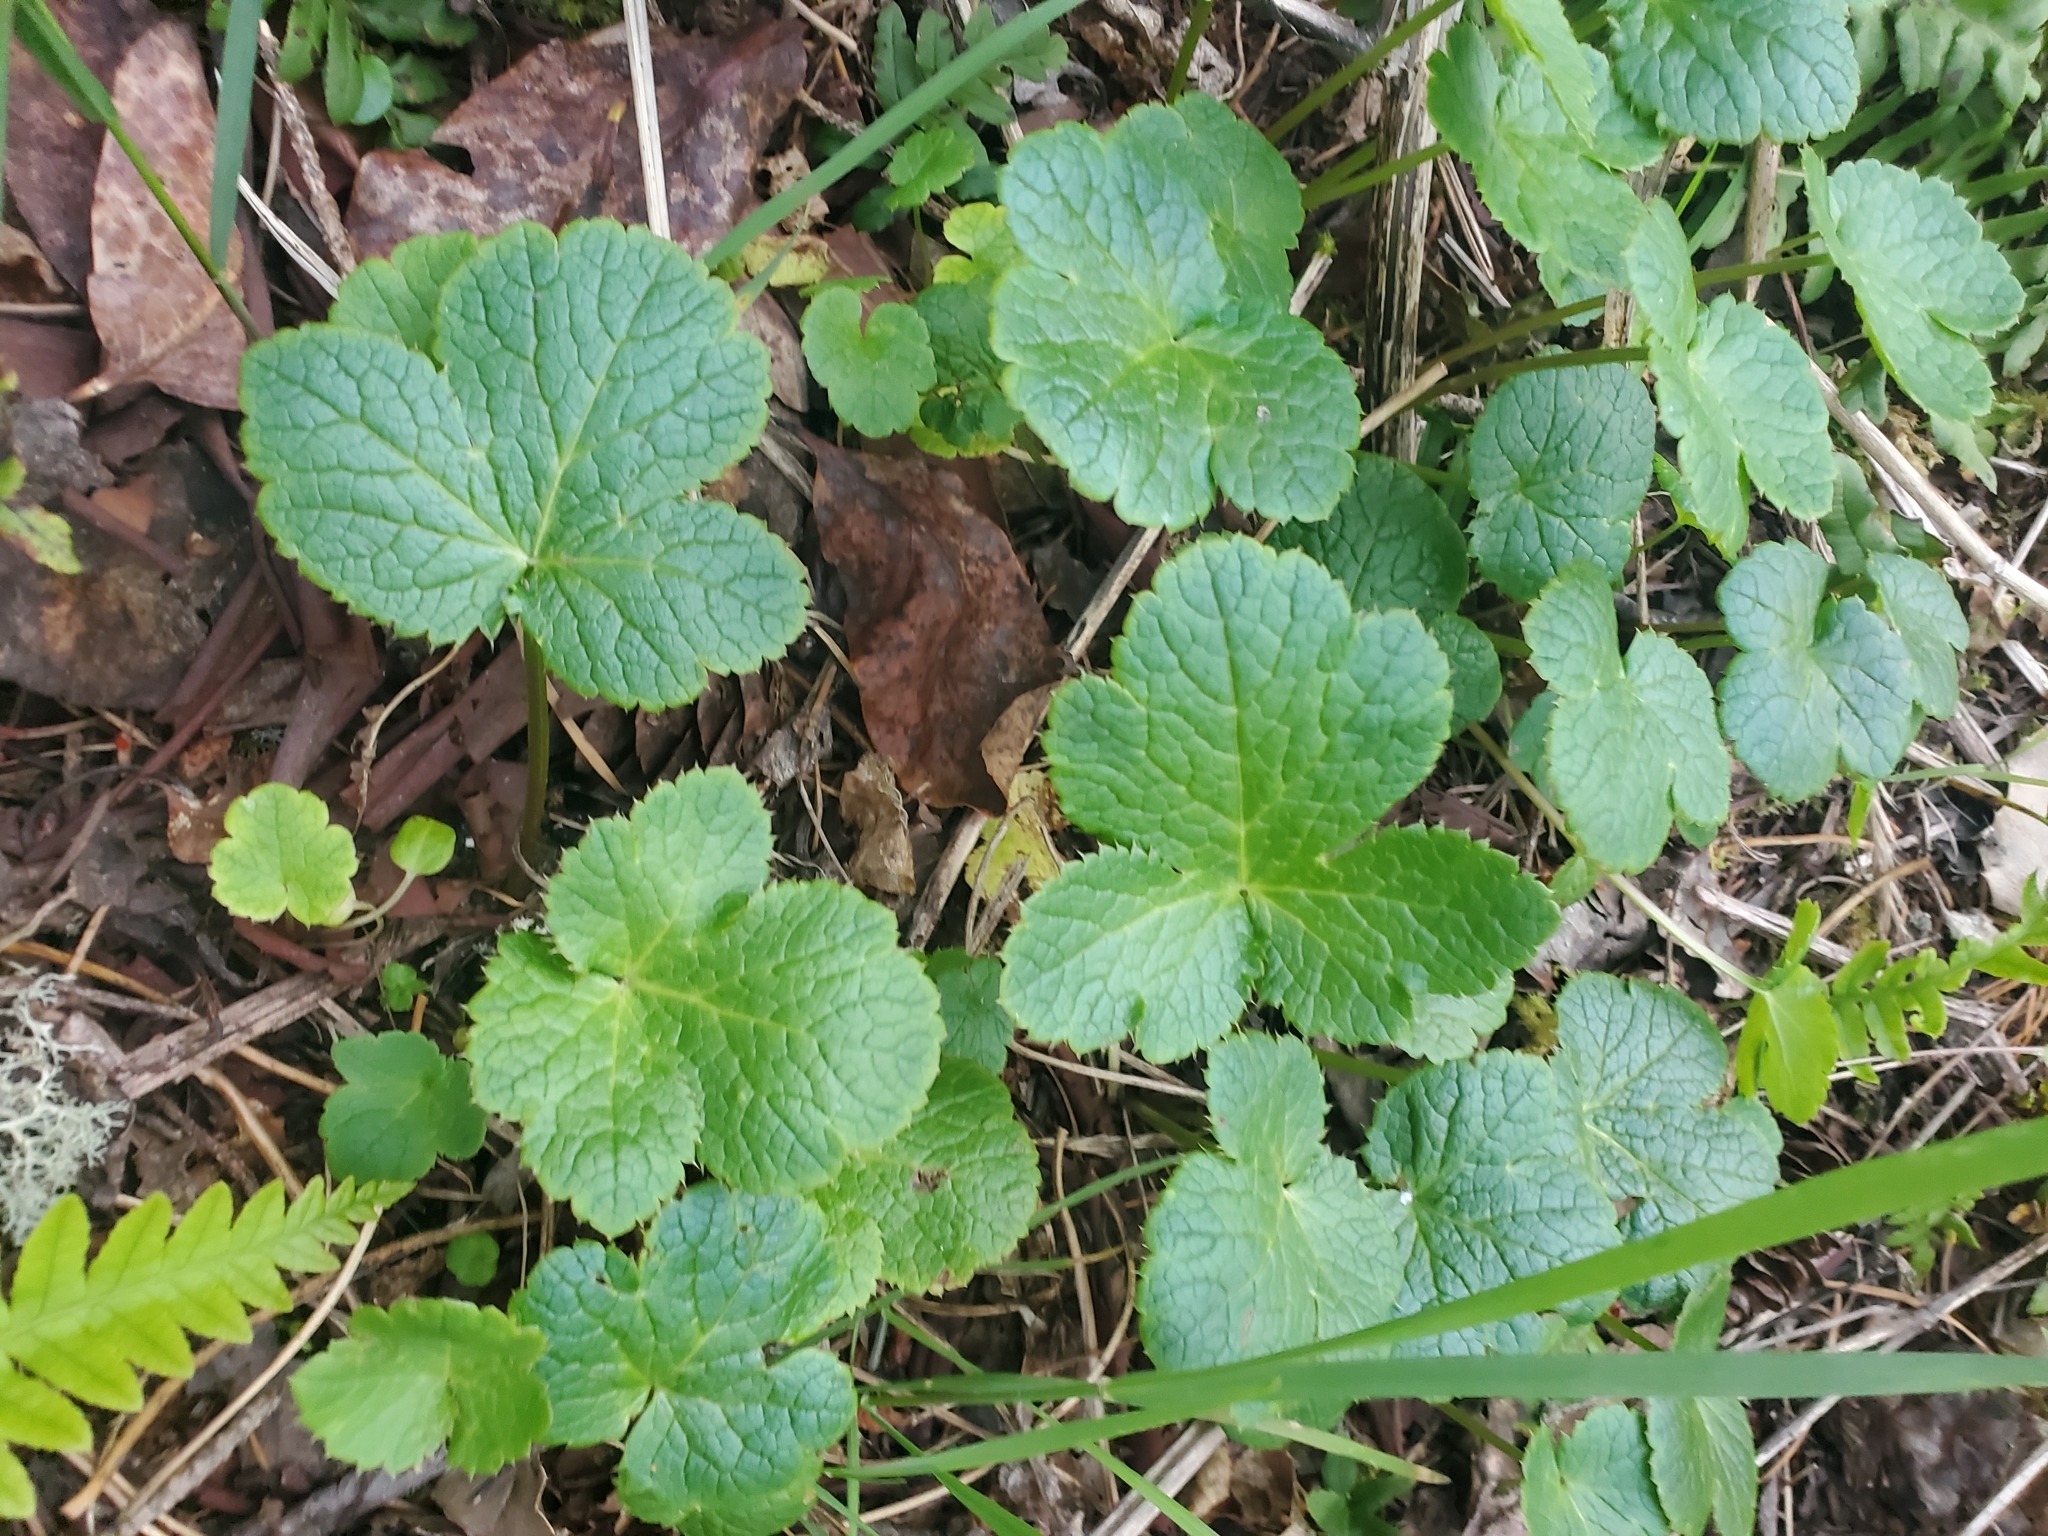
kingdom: Plantae
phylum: Tracheophyta
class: Magnoliopsida
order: Apiales
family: Apiaceae
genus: Sanicula
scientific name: Sanicula crassicaulis
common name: Western snakeroot
